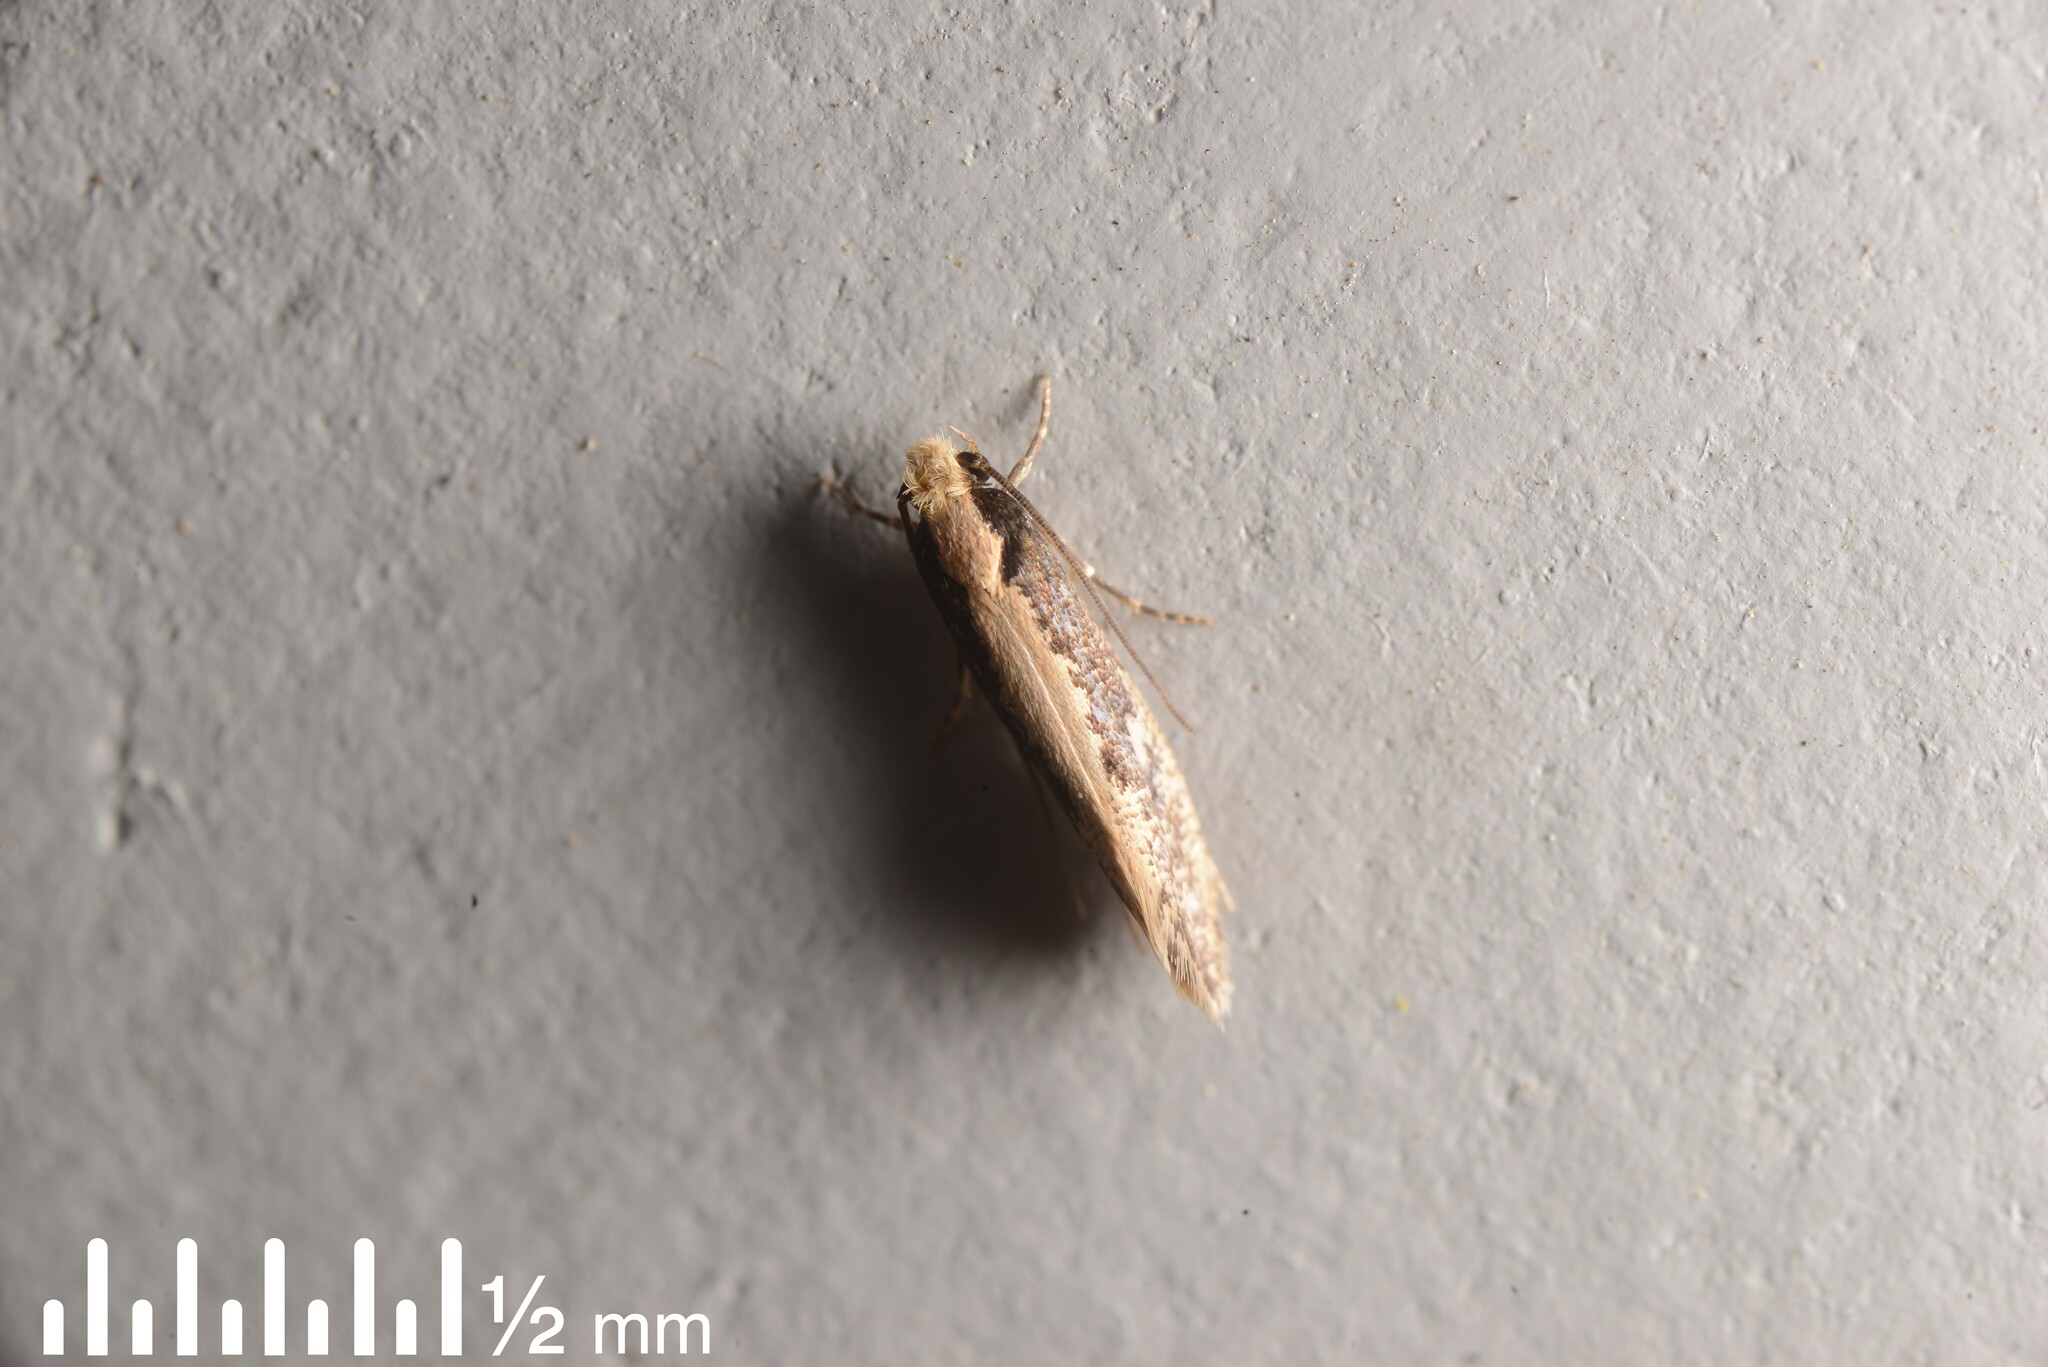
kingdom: Animalia
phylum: Arthropoda
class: Insecta
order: Lepidoptera
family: Tineidae
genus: Monopis
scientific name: Monopis crocicapitella
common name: Moth
